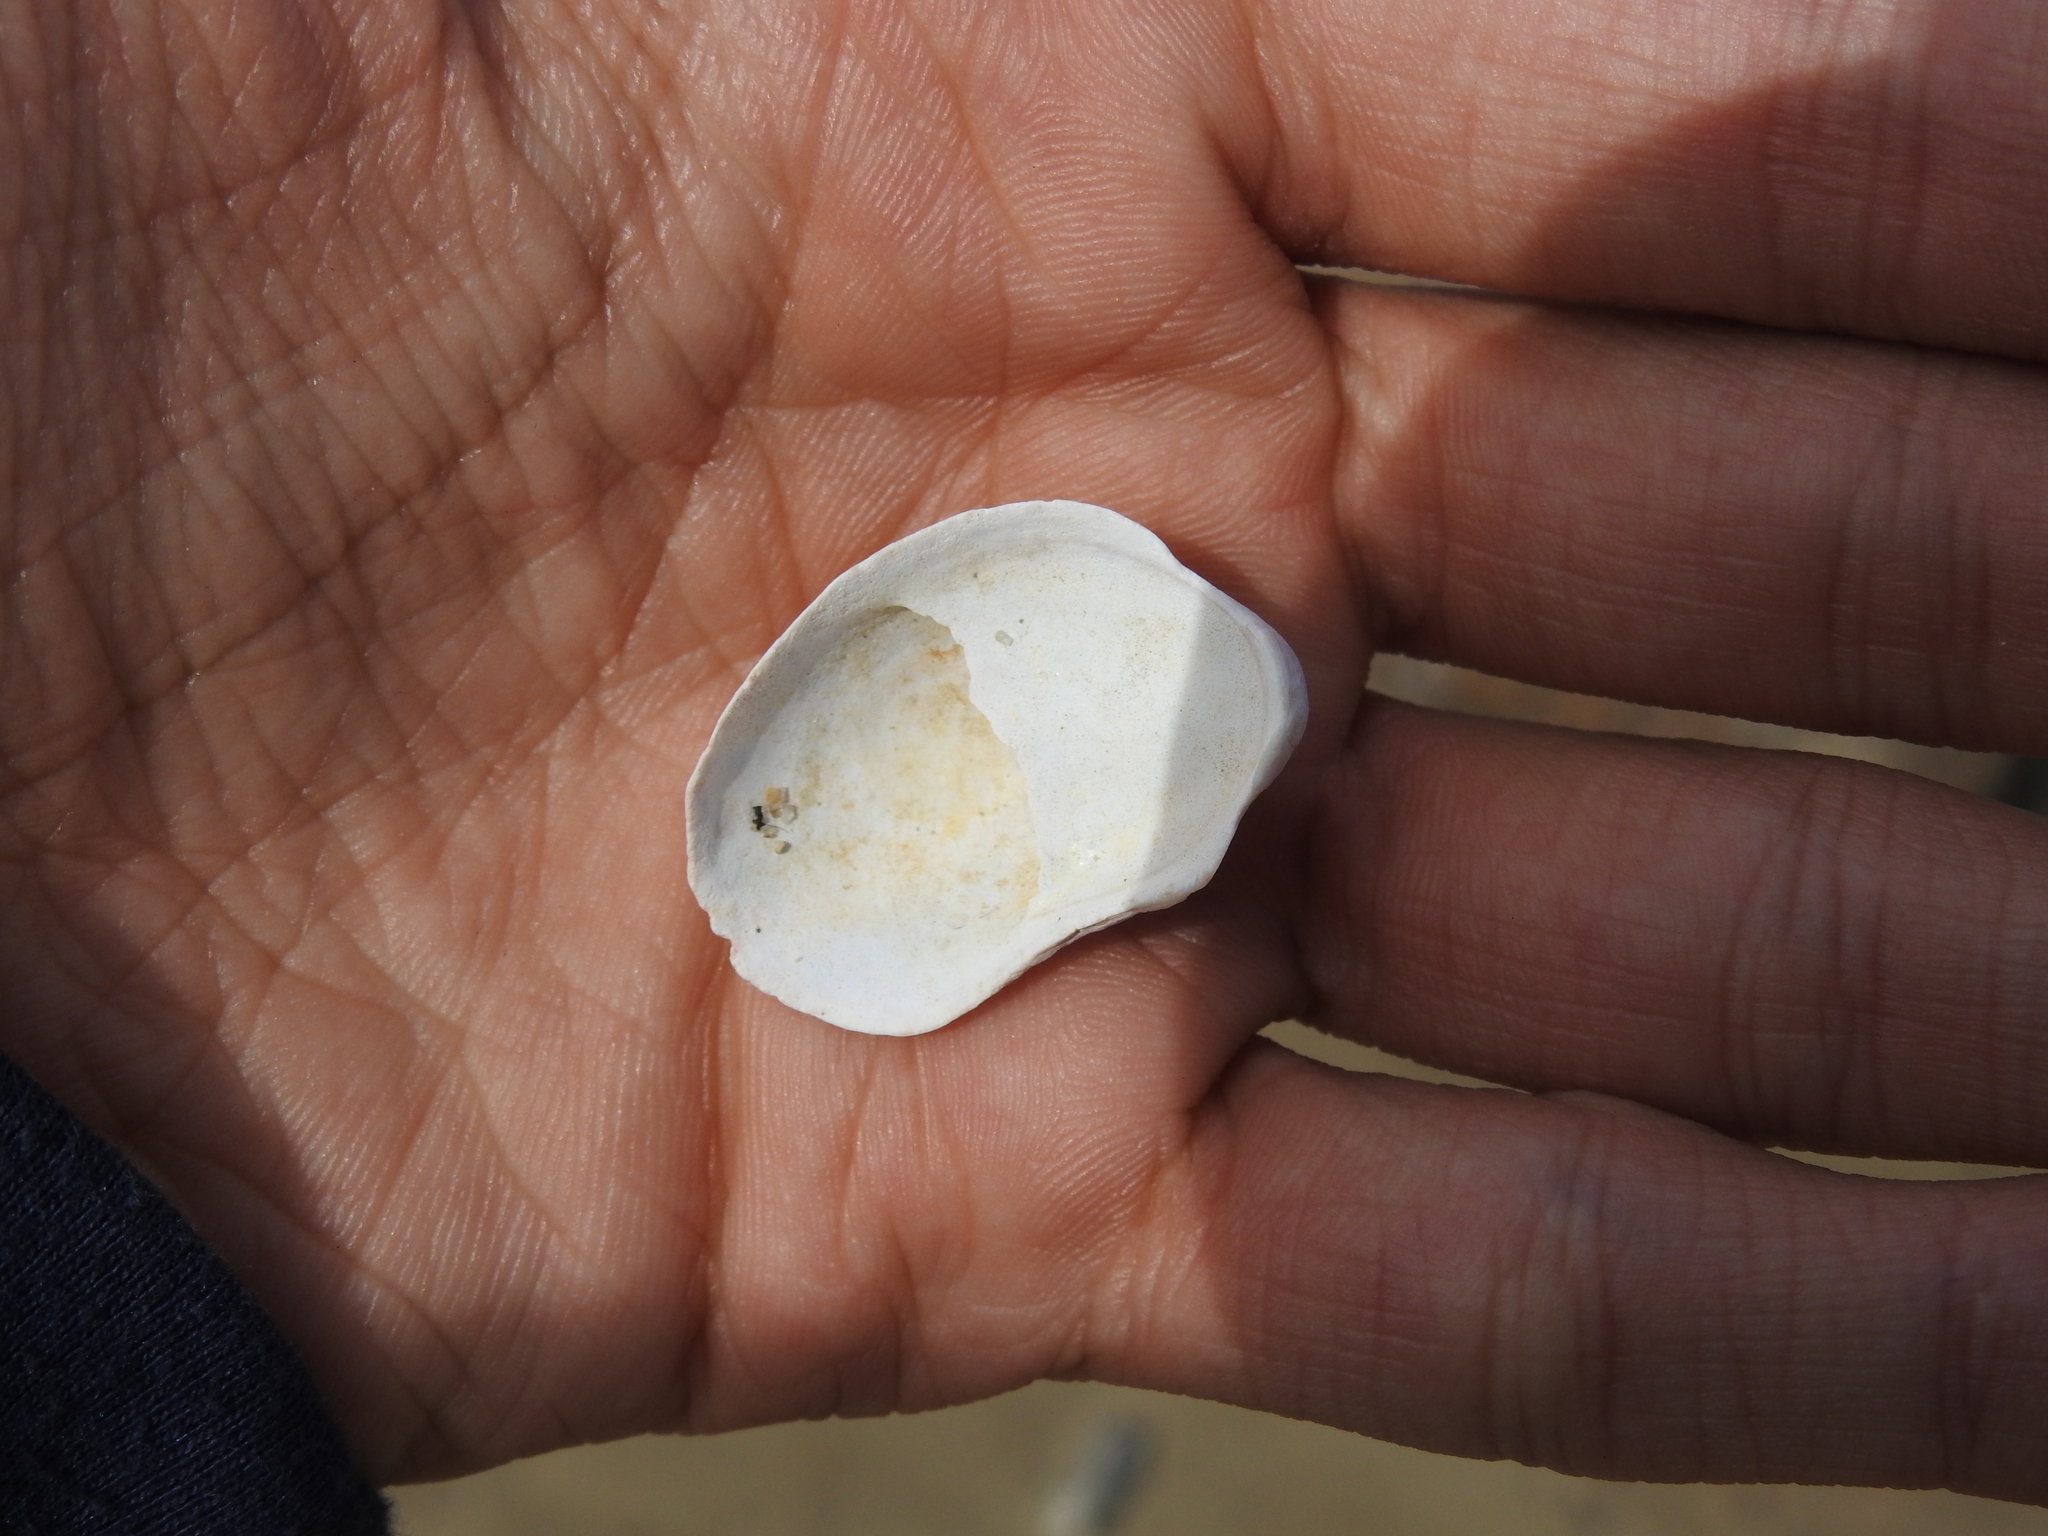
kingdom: Animalia
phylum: Mollusca
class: Gastropoda
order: Littorinimorpha
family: Calyptraeidae
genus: Crepidula
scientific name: Crepidula fornicata
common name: Slipper limpet
